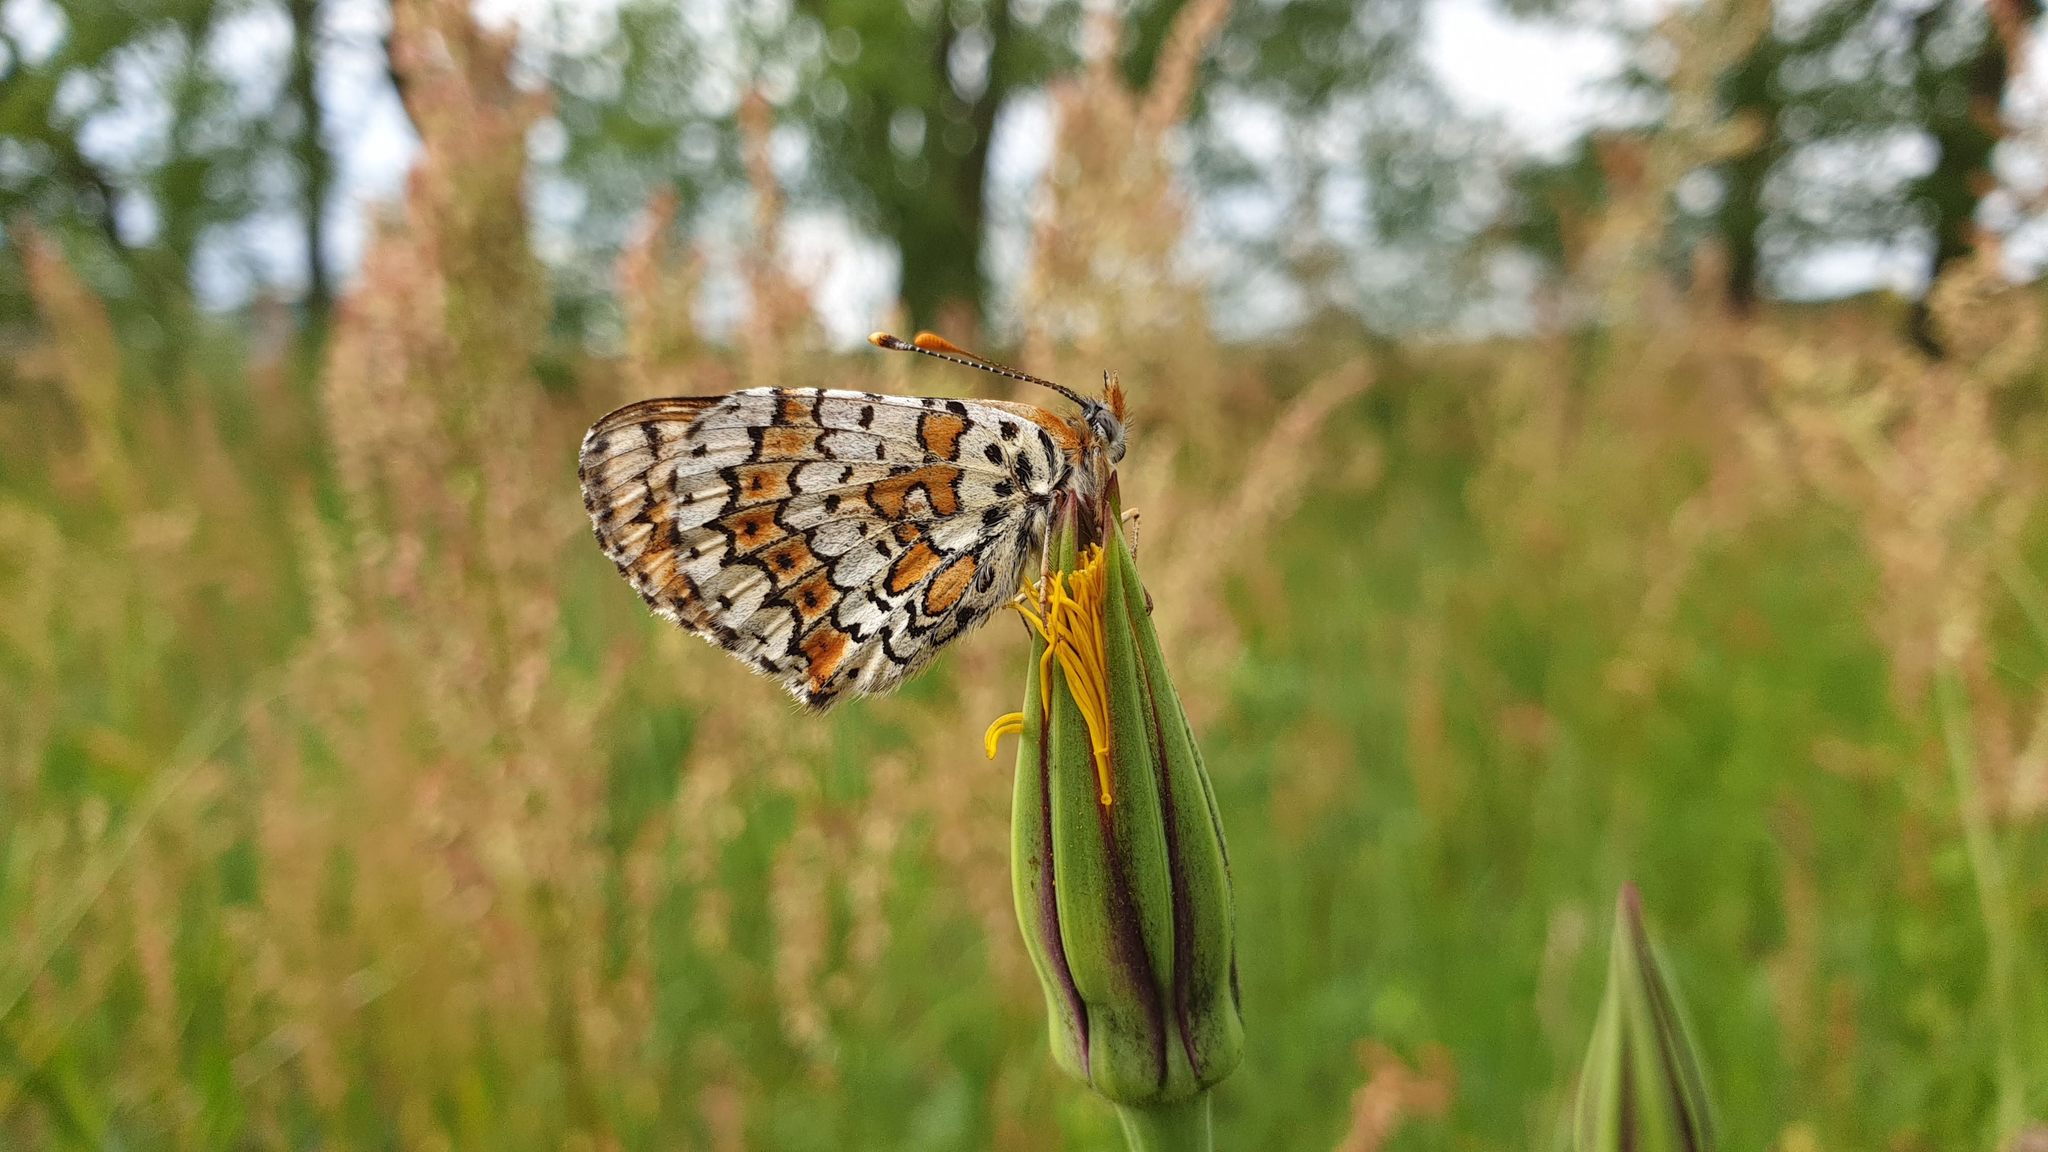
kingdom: Animalia
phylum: Arthropoda
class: Insecta
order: Lepidoptera
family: Nymphalidae
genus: Melitaea
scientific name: Melitaea cinxia
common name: Glanville fritillary
